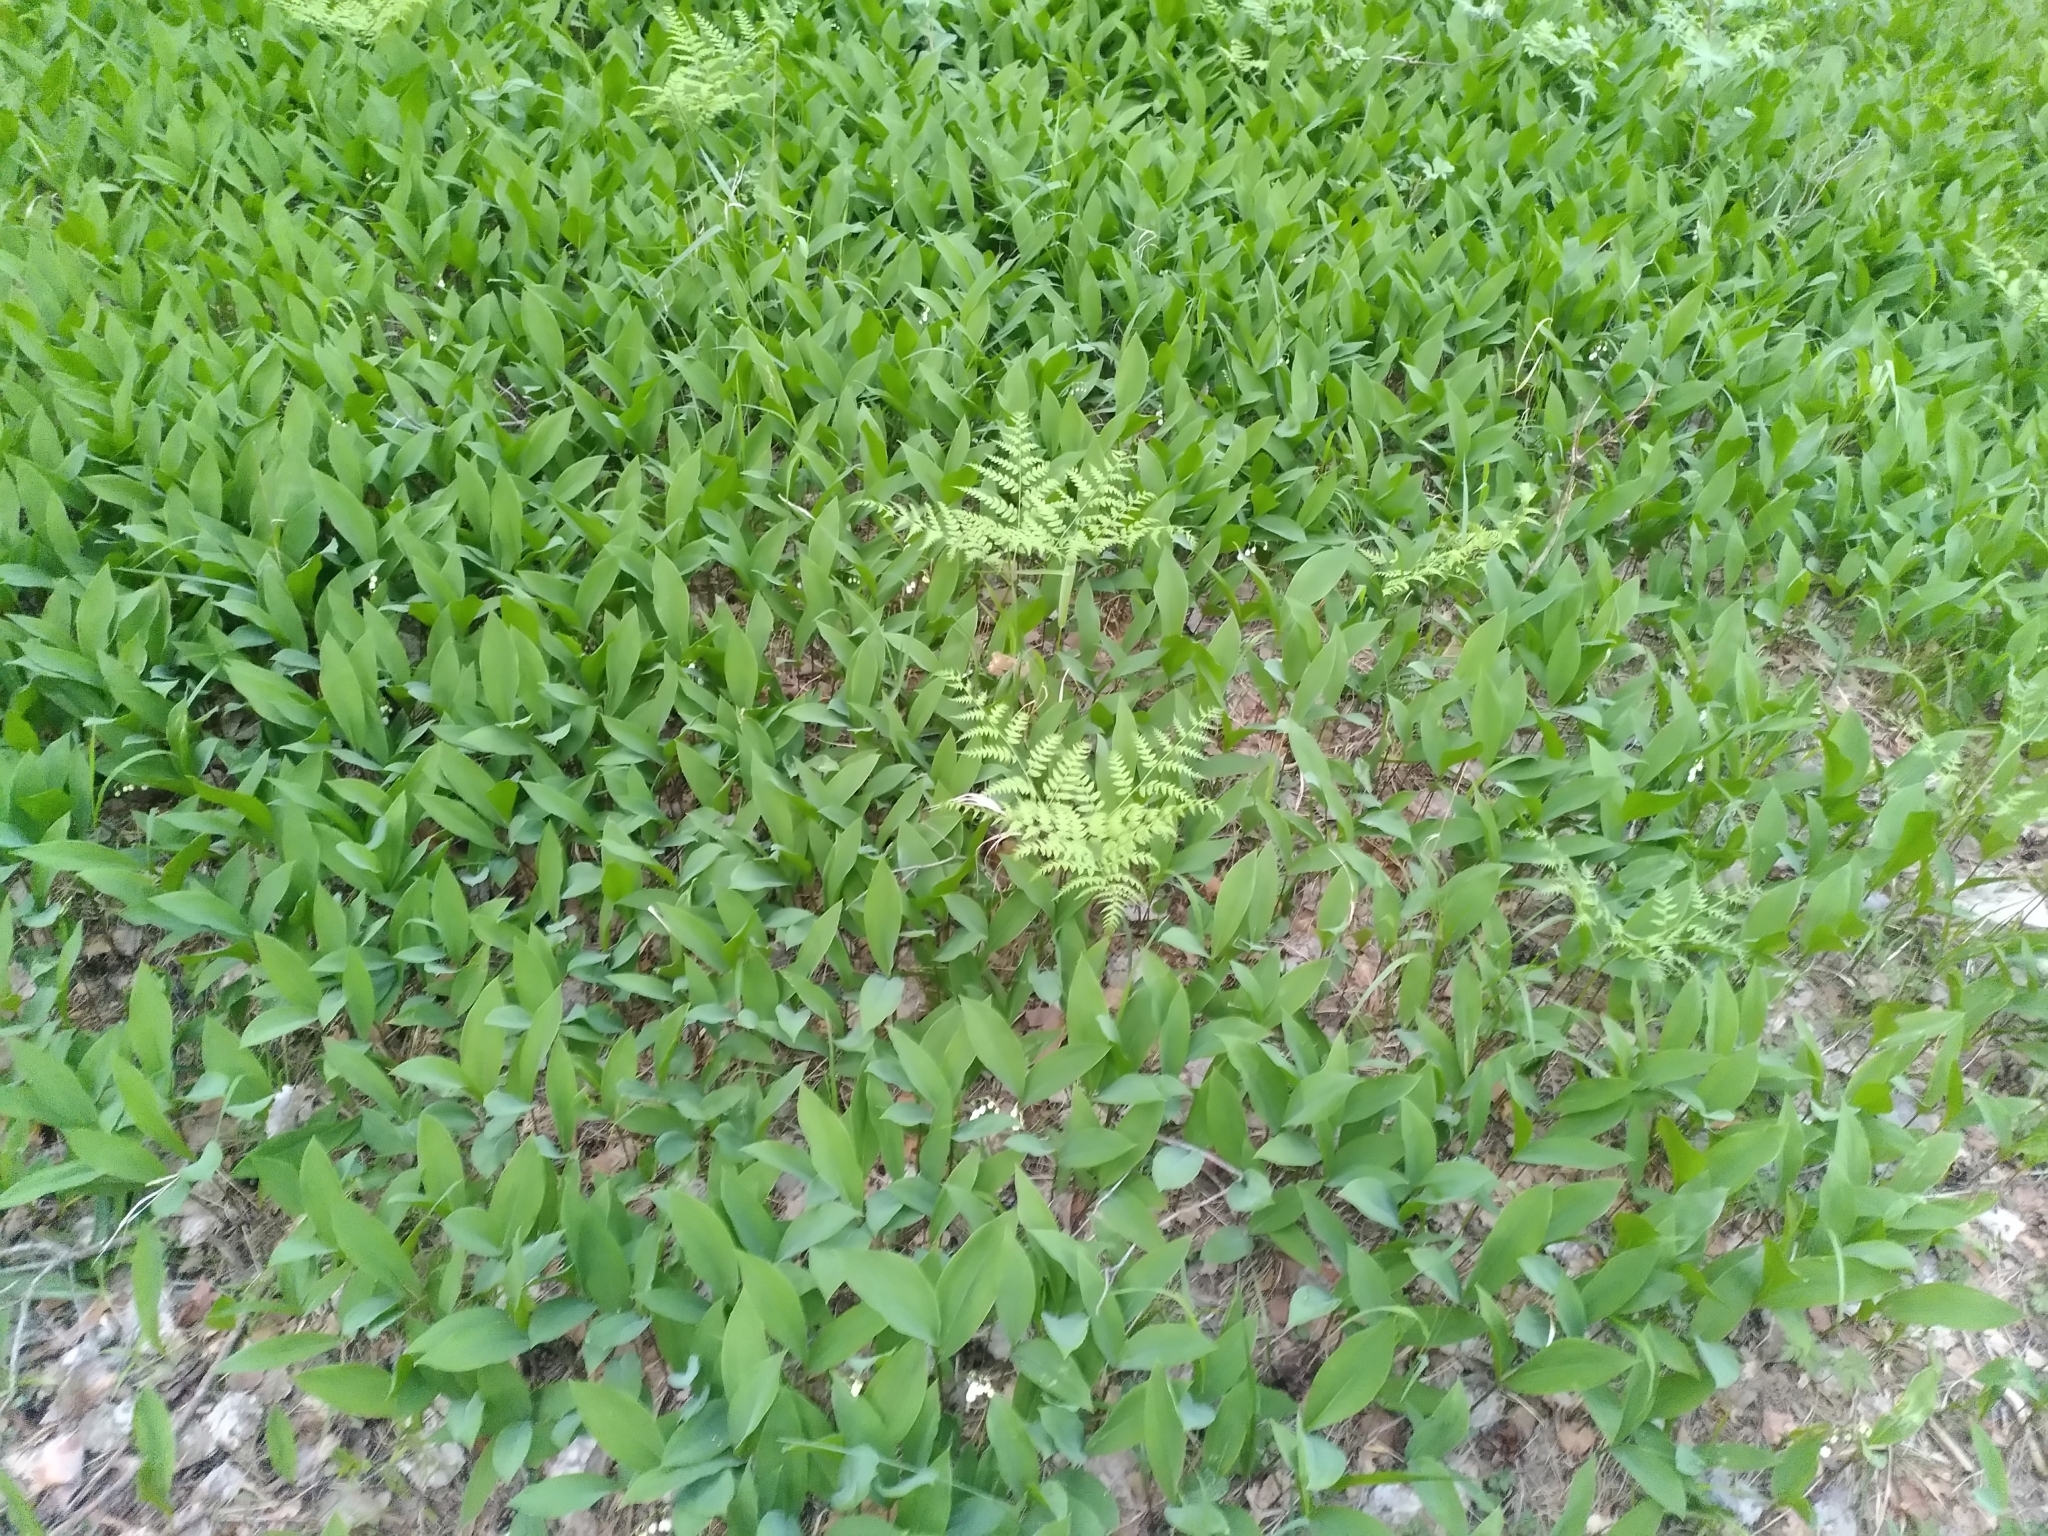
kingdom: Plantae
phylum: Tracheophyta
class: Liliopsida
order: Asparagales
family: Asparagaceae
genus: Convallaria
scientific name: Convallaria majalis
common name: Lily-of-the-valley
